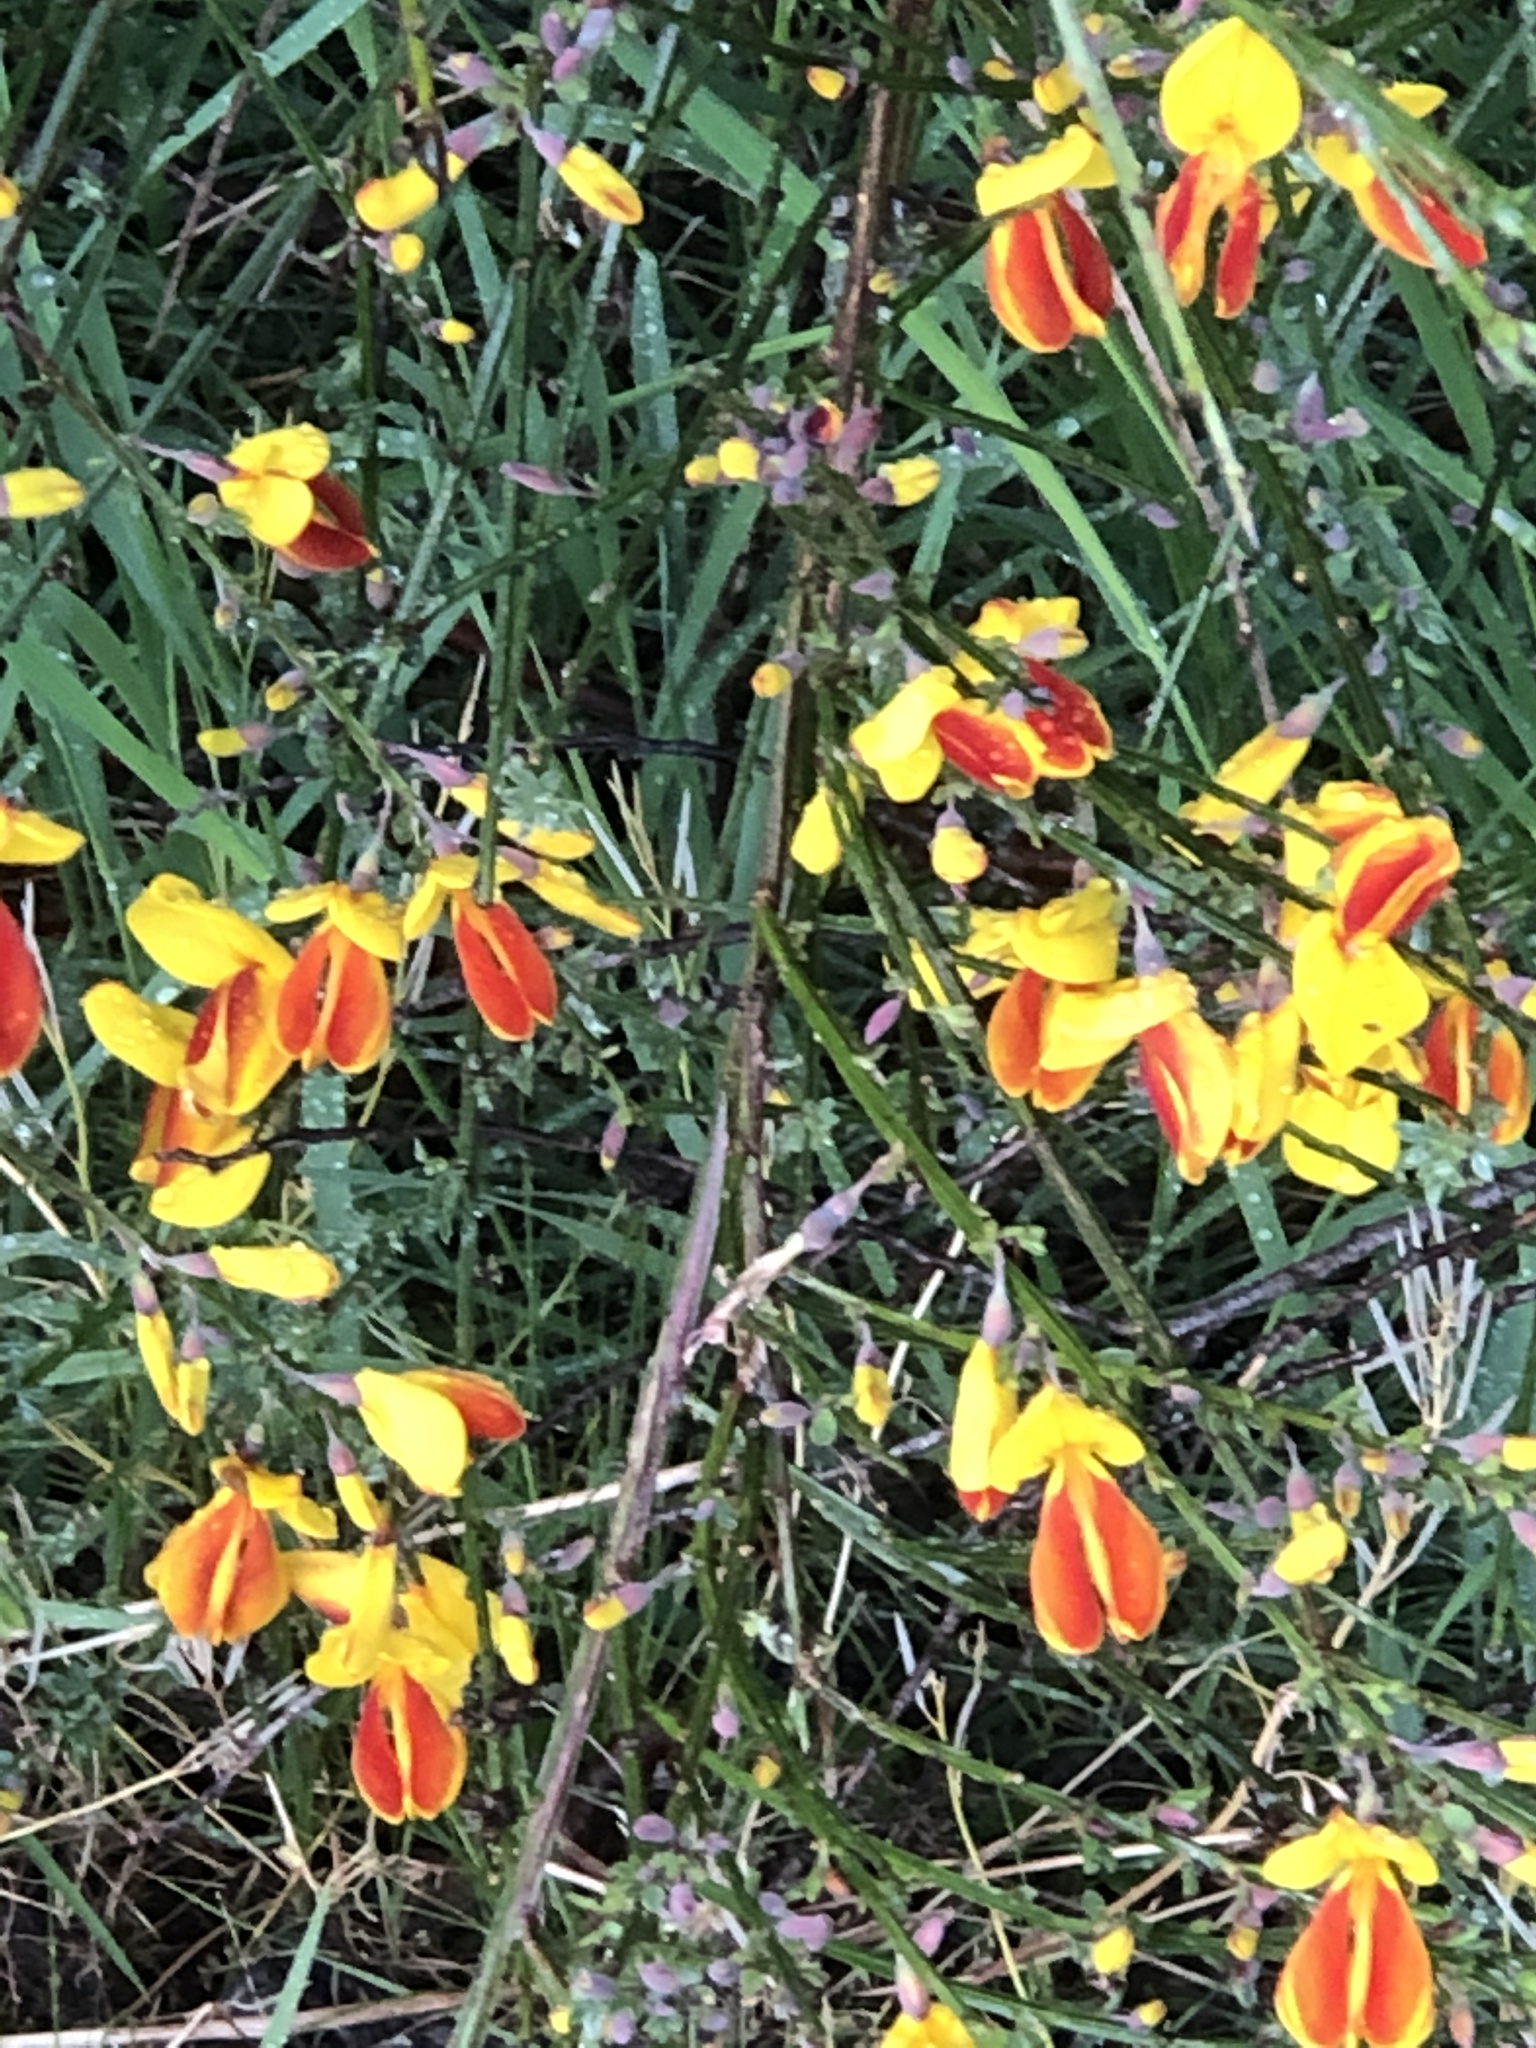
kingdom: Plantae
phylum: Tracheophyta
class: Magnoliopsida
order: Fabales
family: Fabaceae
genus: Cytisus
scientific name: Cytisus scoparius
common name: Scotch broom
